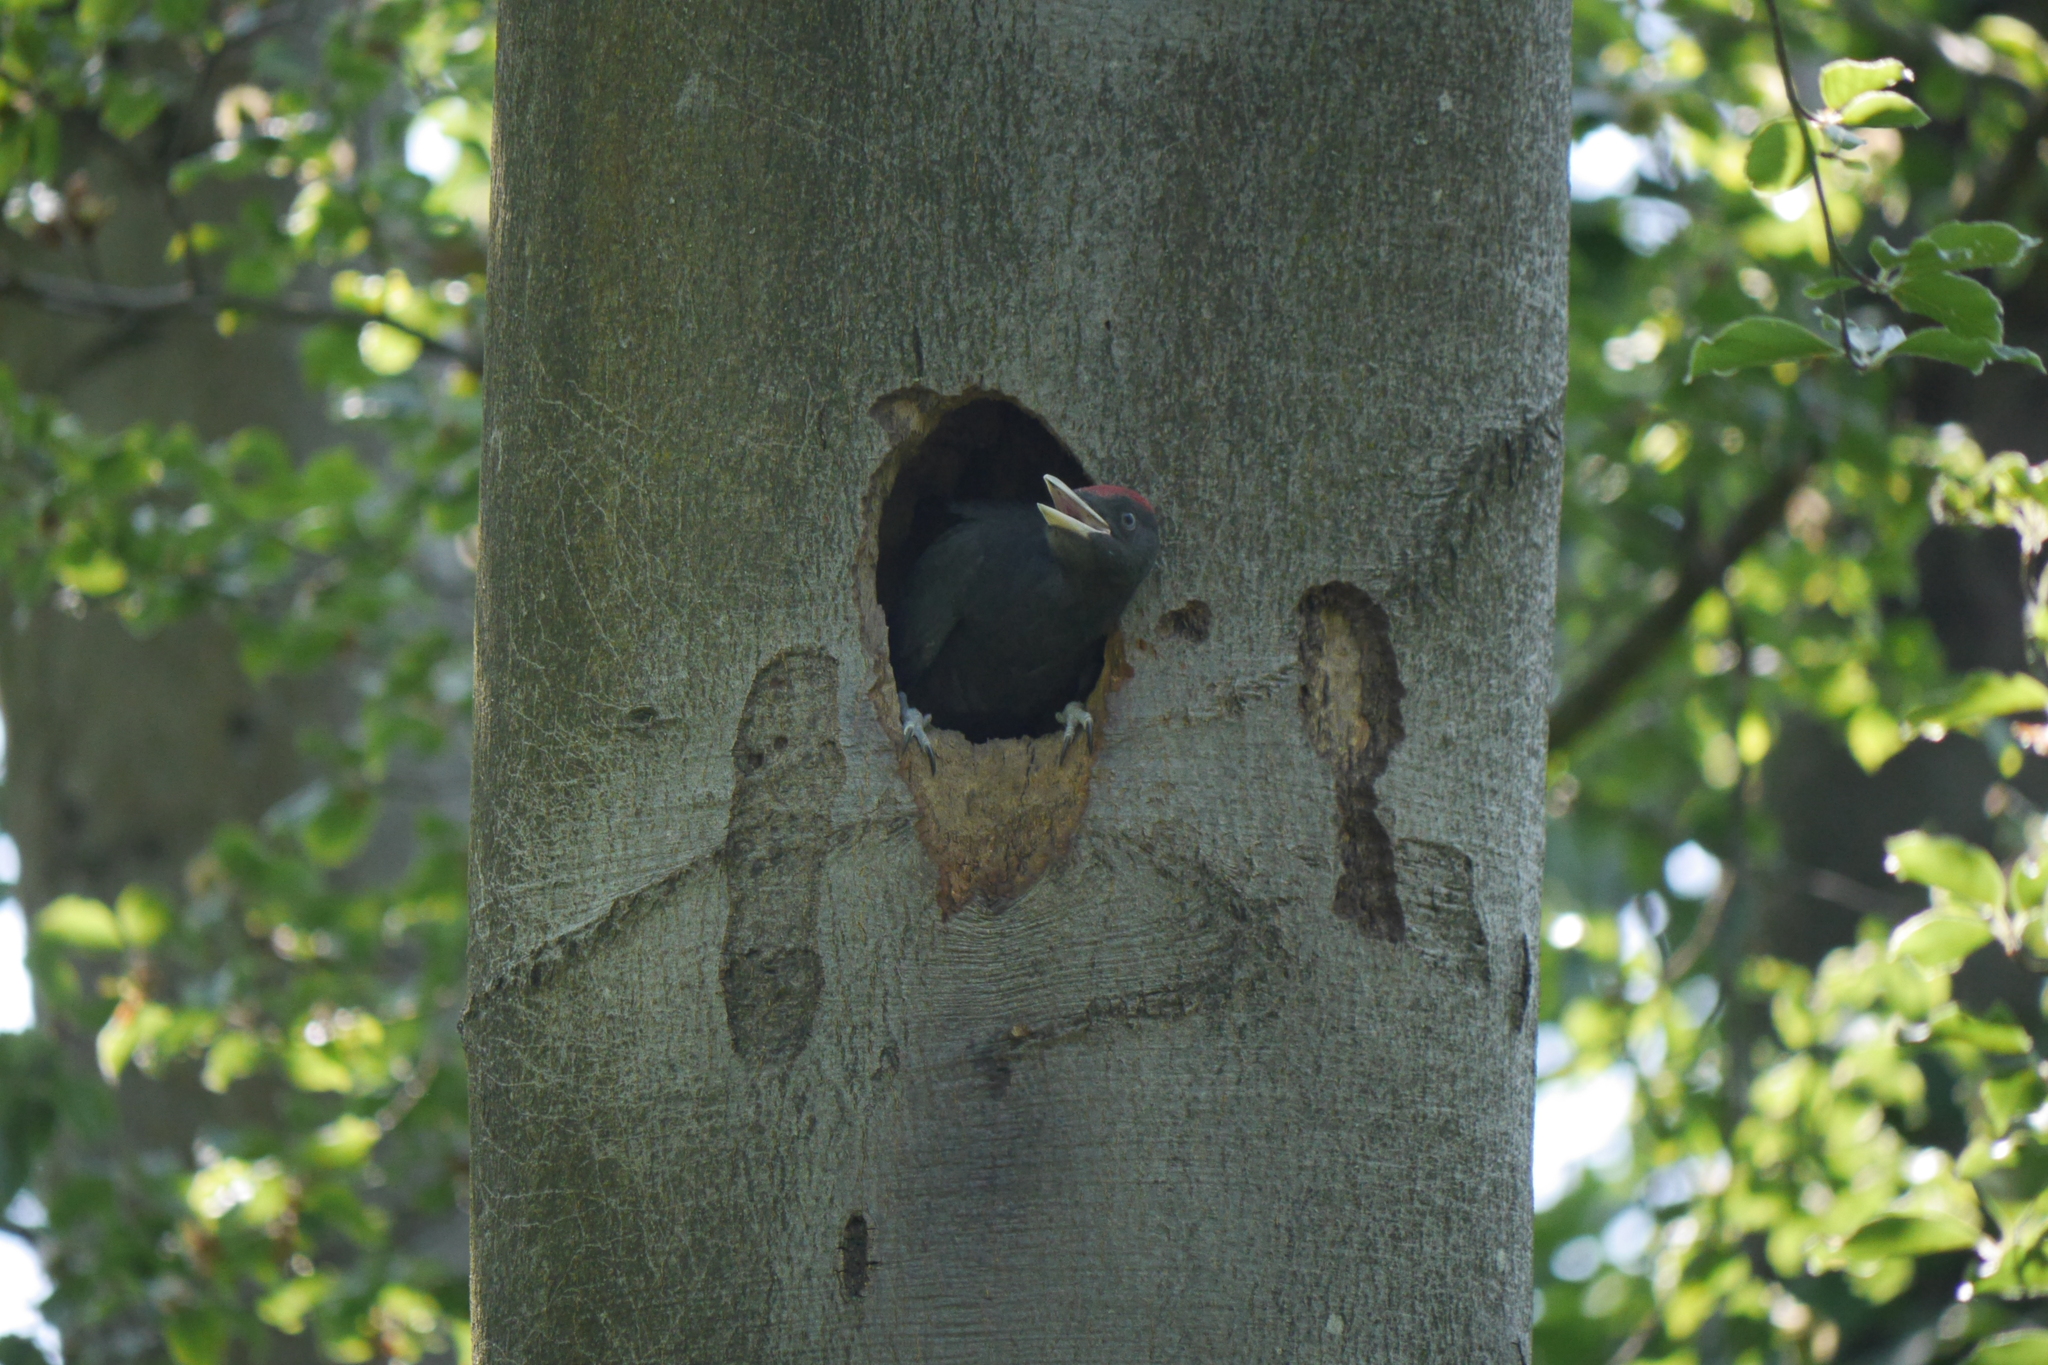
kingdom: Animalia
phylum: Chordata
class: Aves
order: Piciformes
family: Picidae
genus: Dryocopus
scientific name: Dryocopus martius
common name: Black woodpecker
